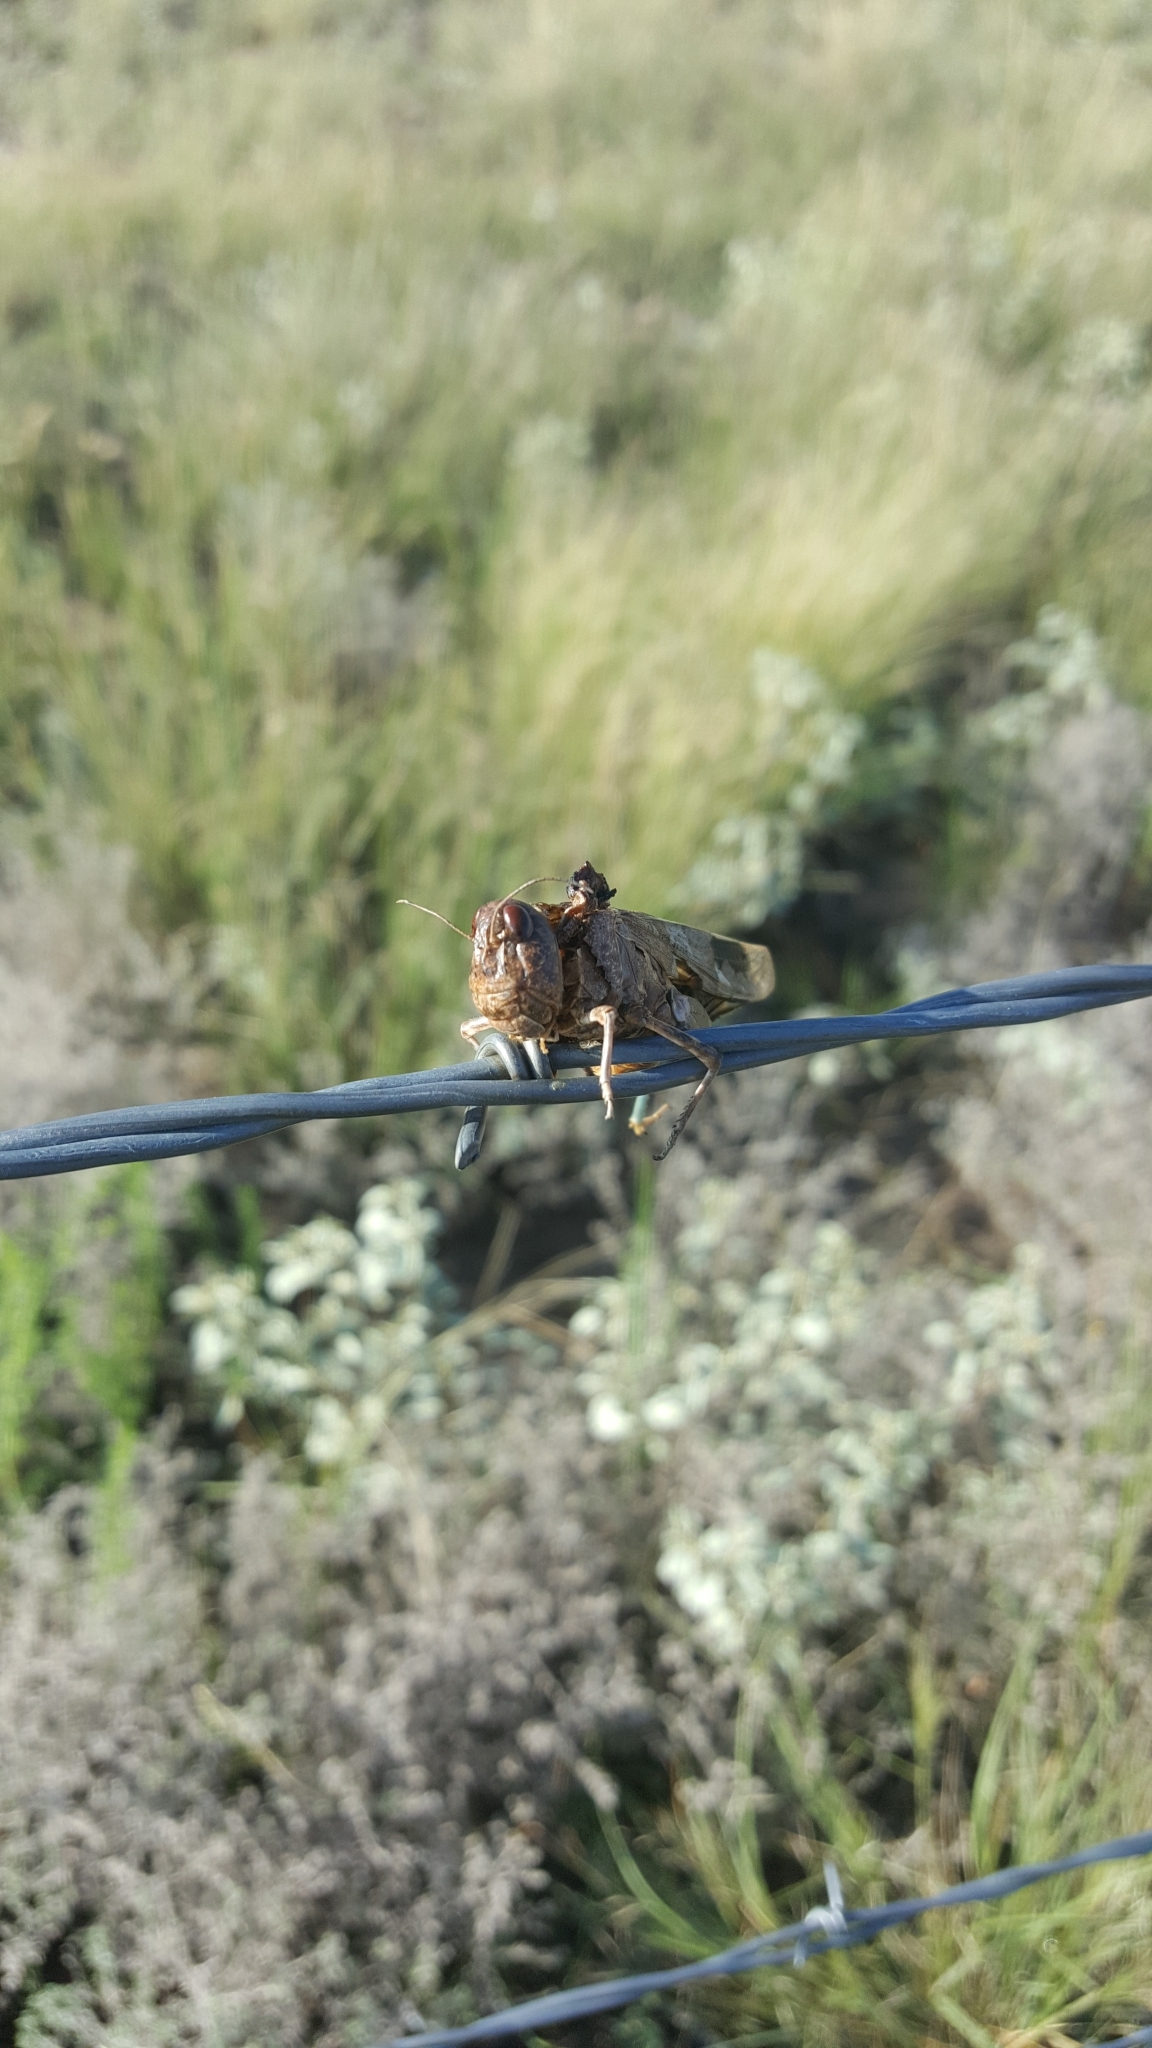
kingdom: Animalia
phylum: Chordata
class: Aves
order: Passeriformes
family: Laniidae
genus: Lanius
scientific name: Lanius ludovicianus
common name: Loggerhead shrike
